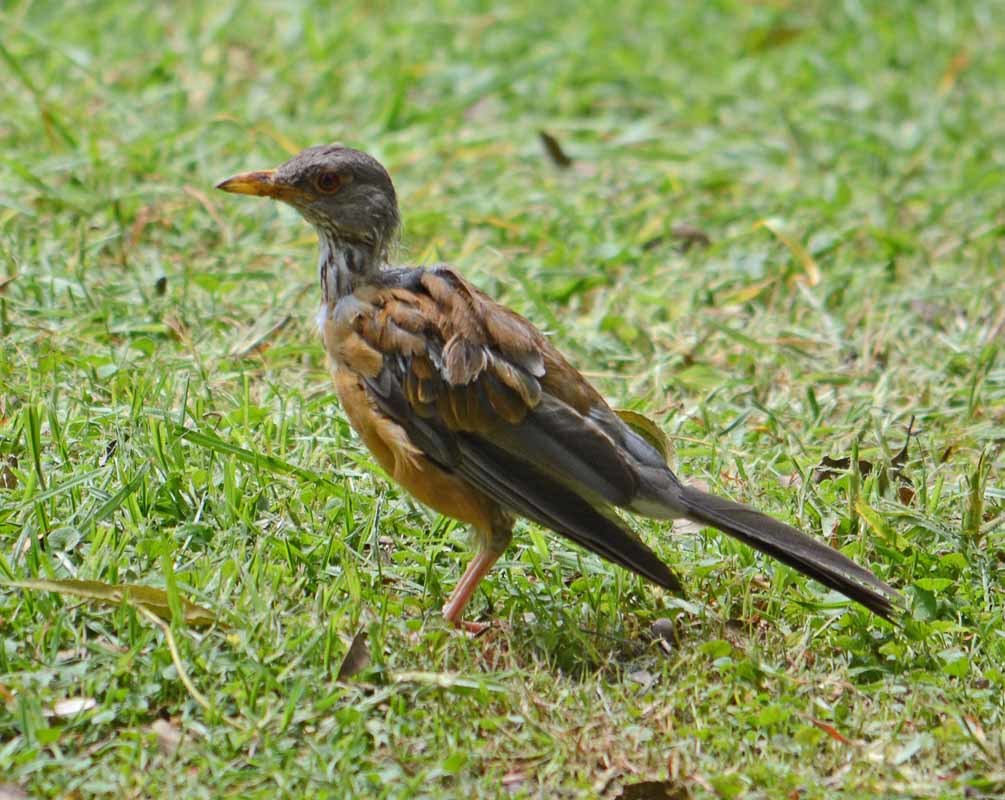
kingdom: Animalia
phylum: Chordata
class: Aves
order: Passeriformes
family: Turdidae
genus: Turdus
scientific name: Turdus rufopalliatus
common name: Rufous-backed robin
